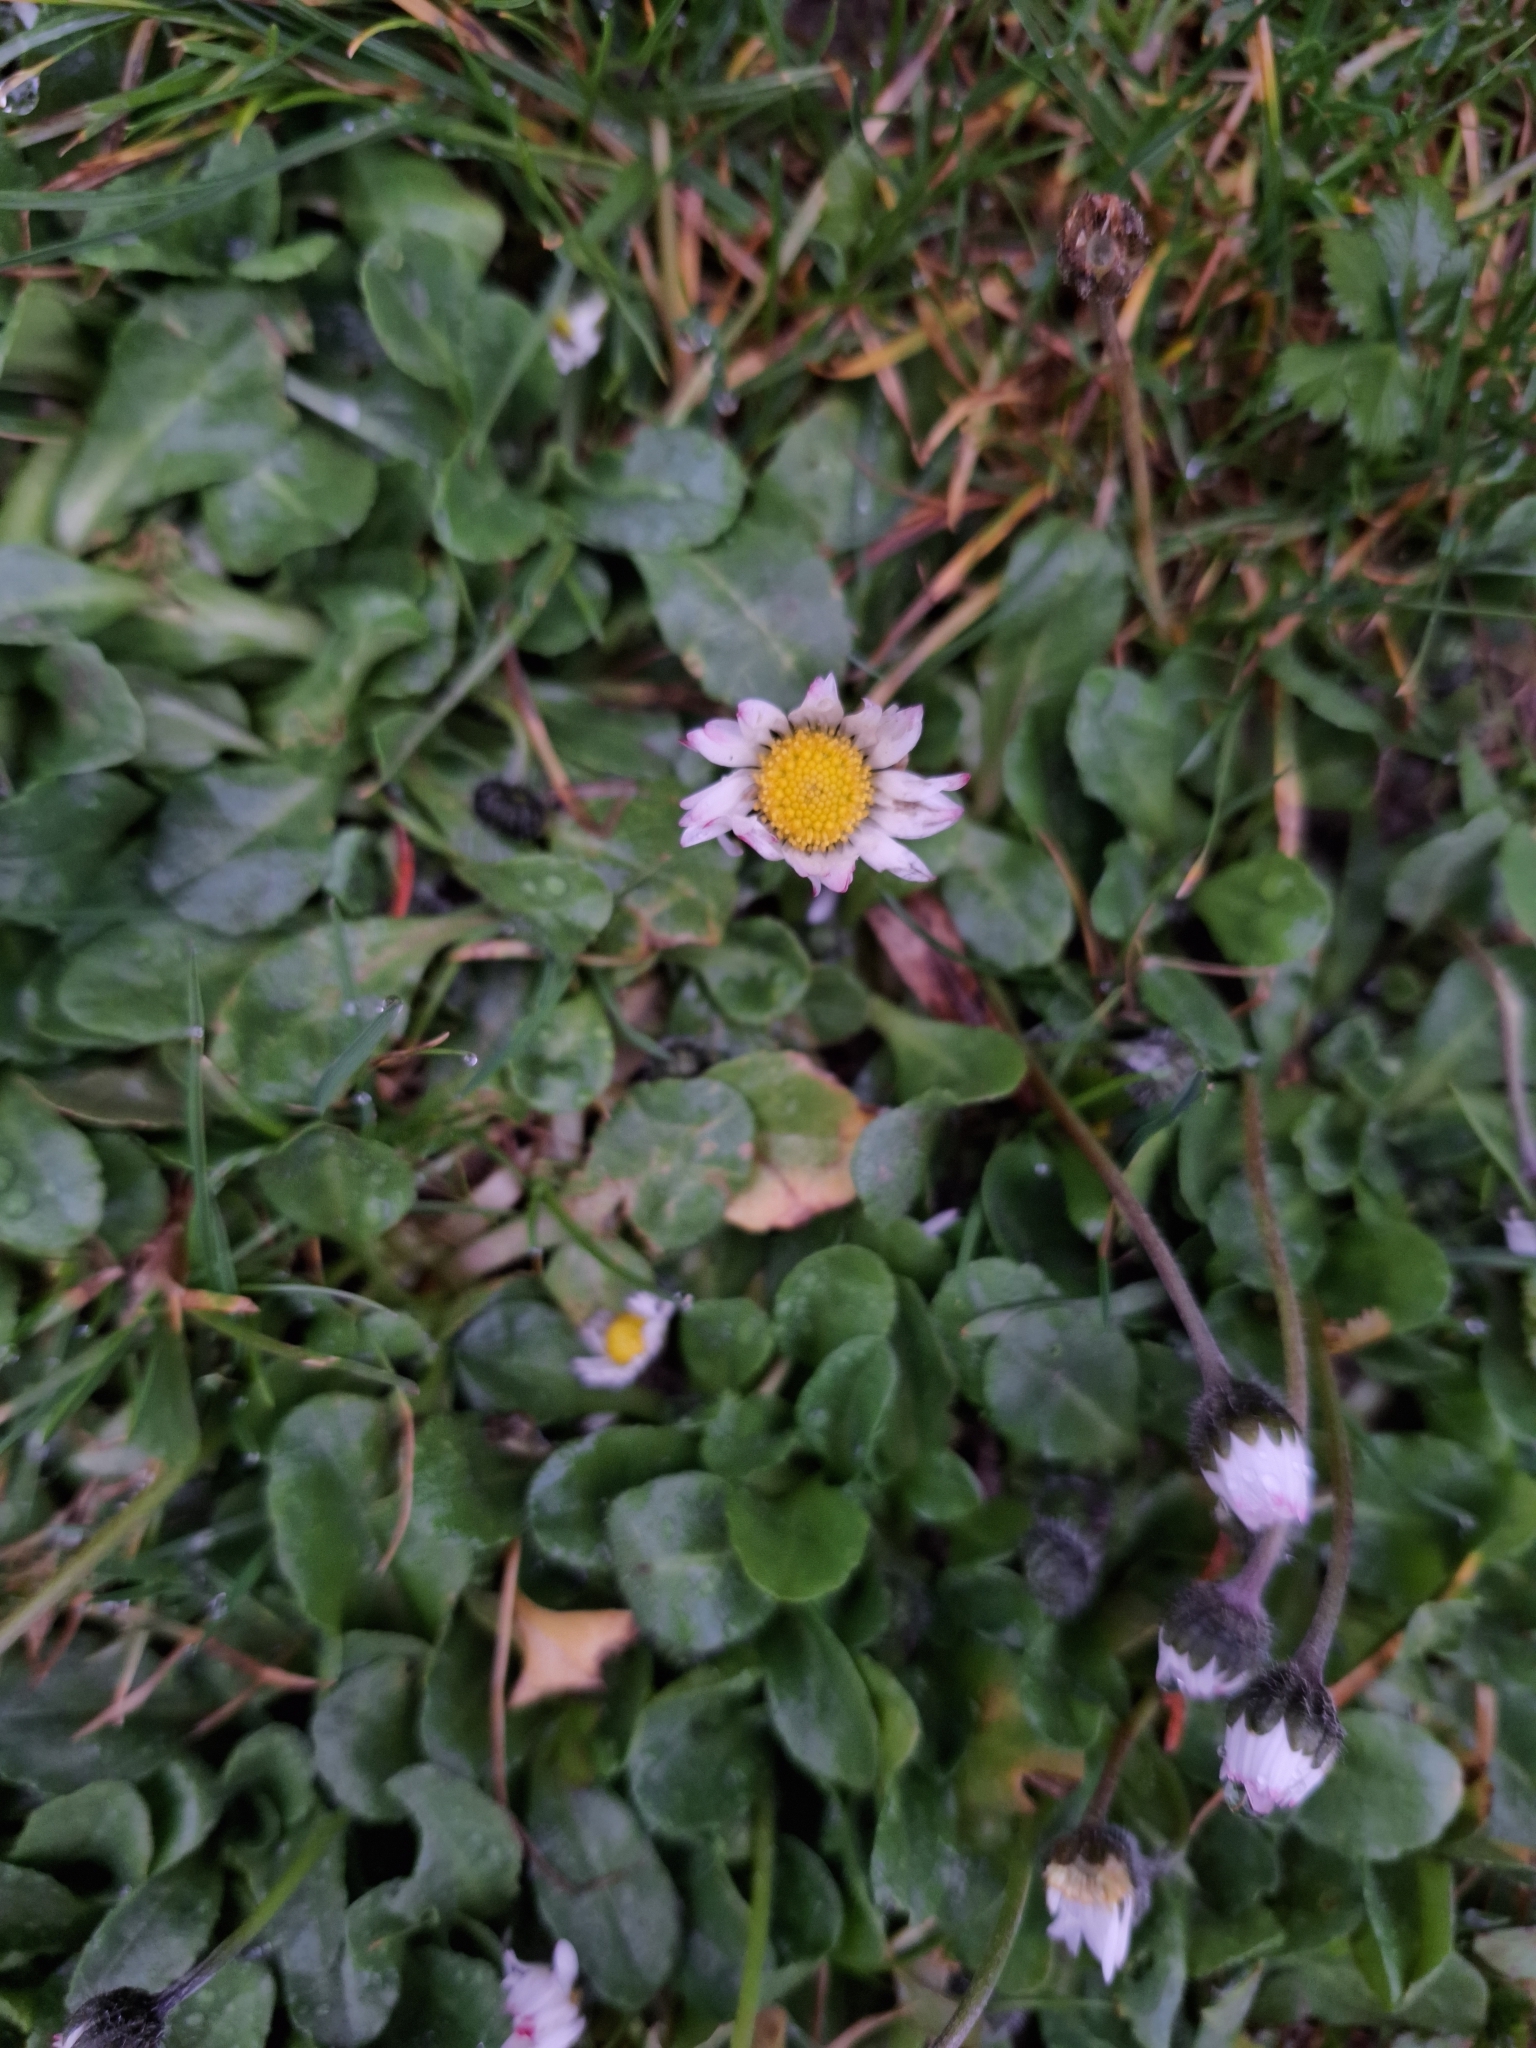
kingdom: Plantae
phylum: Tracheophyta
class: Magnoliopsida
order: Asterales
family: Asteraceae
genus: Bellis
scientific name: Bellis perennis
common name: Lawndaisy
